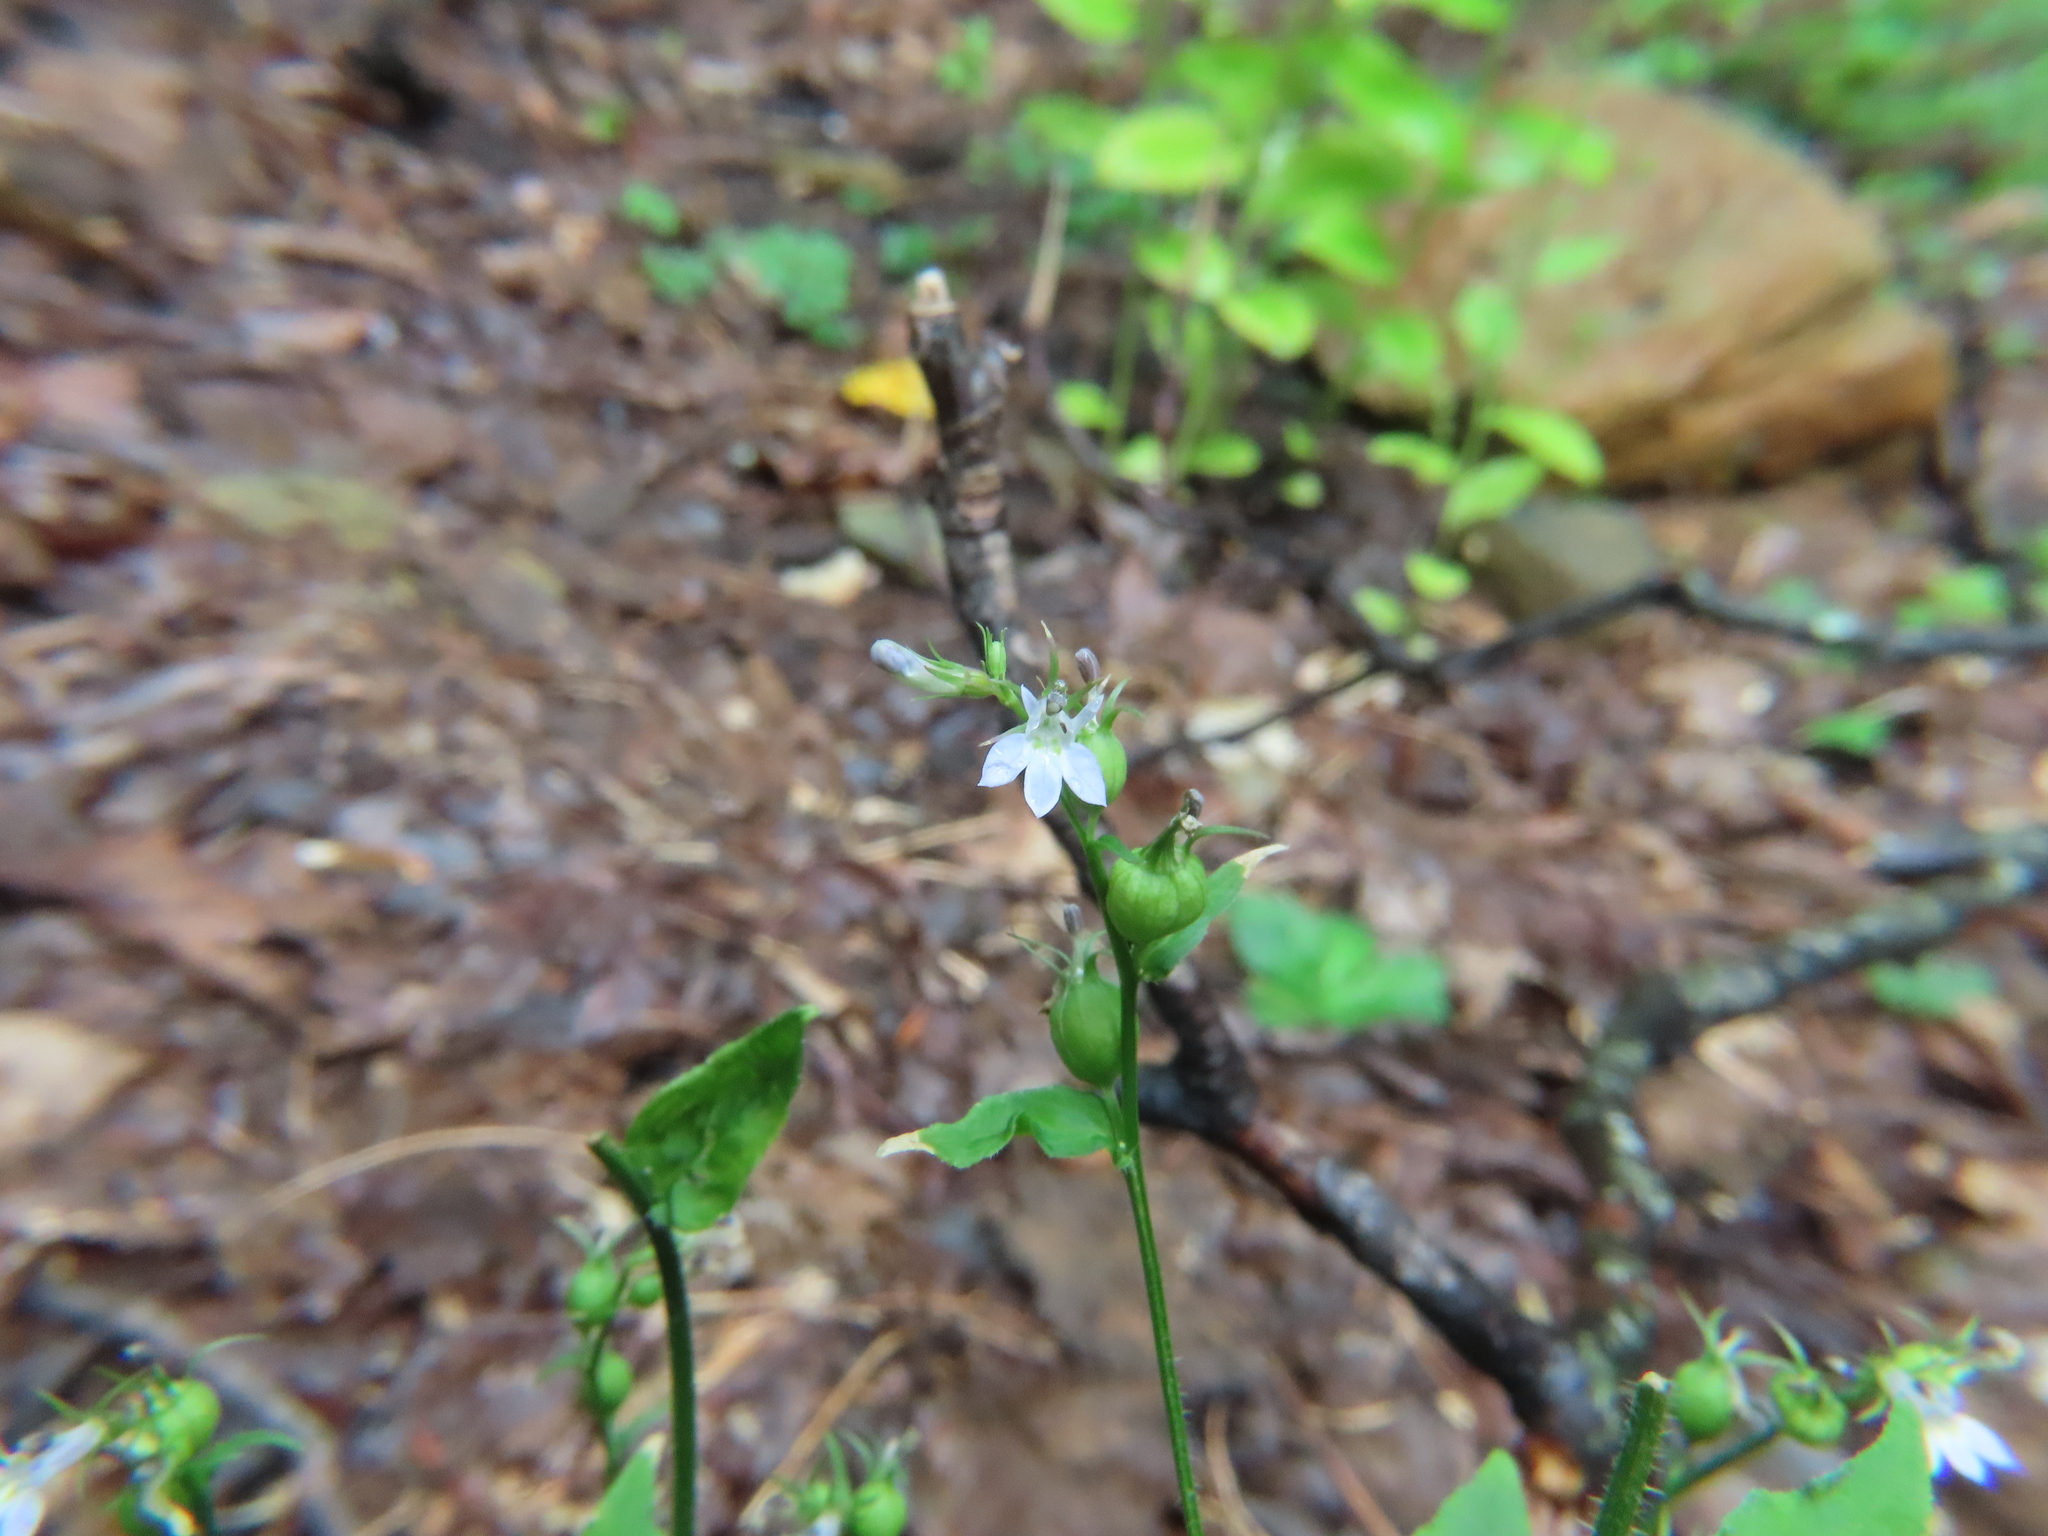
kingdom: Plantae
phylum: Tracheophyta
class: Magnoliopsida
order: Asterales
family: Campanulaceae
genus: Lobelia
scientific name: Lobelia inflata
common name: Indian tobacco
